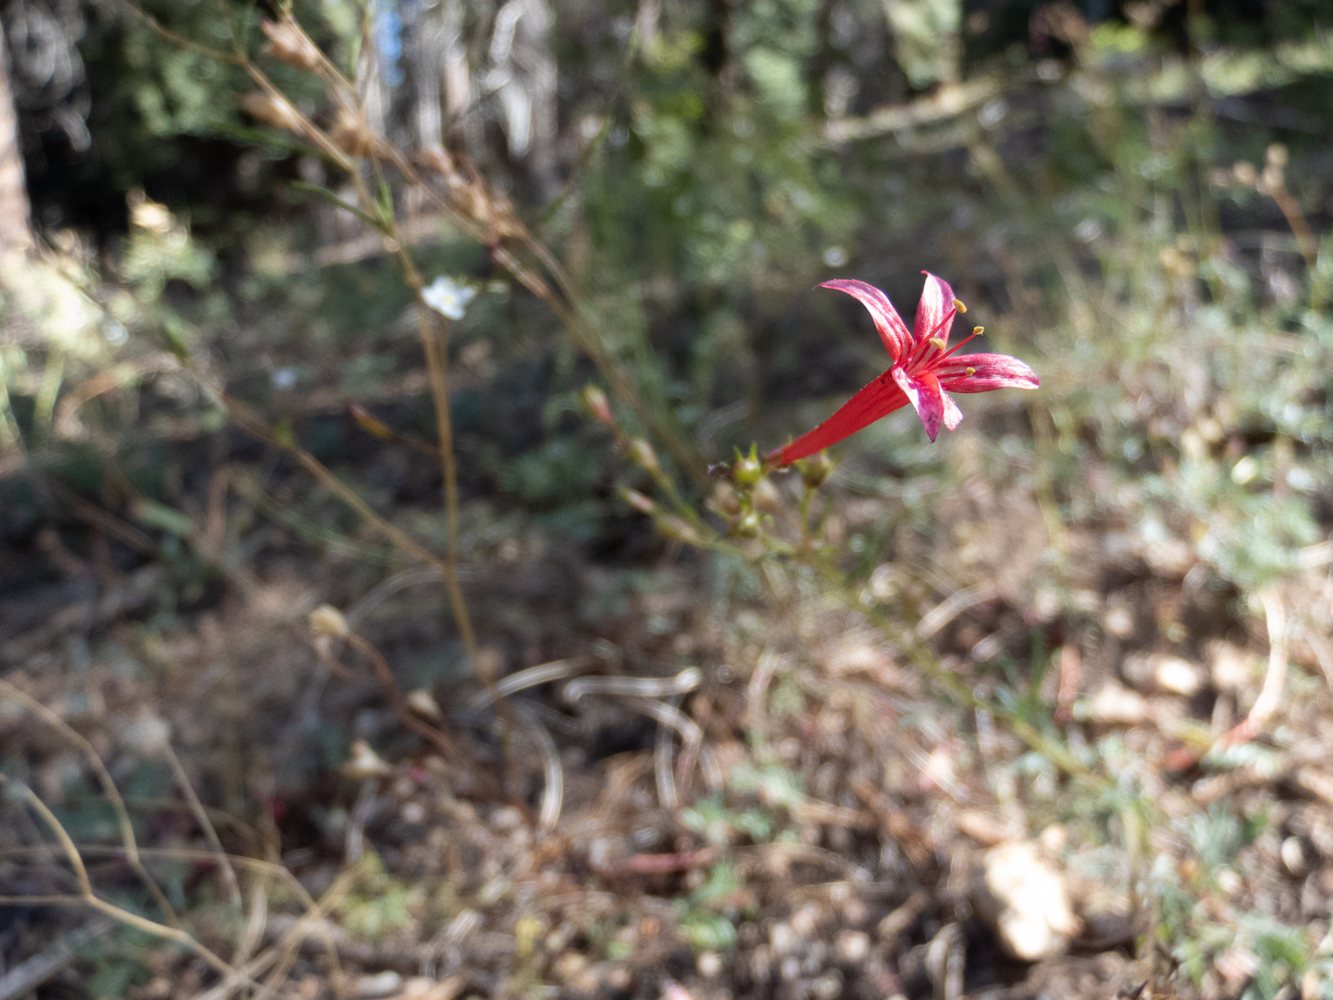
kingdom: Plantae
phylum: Tracheophyta
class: Magnoliopsida
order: Ericales
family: Polemoniaceae
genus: Ipomopsis
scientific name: Ipomopsis aggregata
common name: Scarlet gilia
